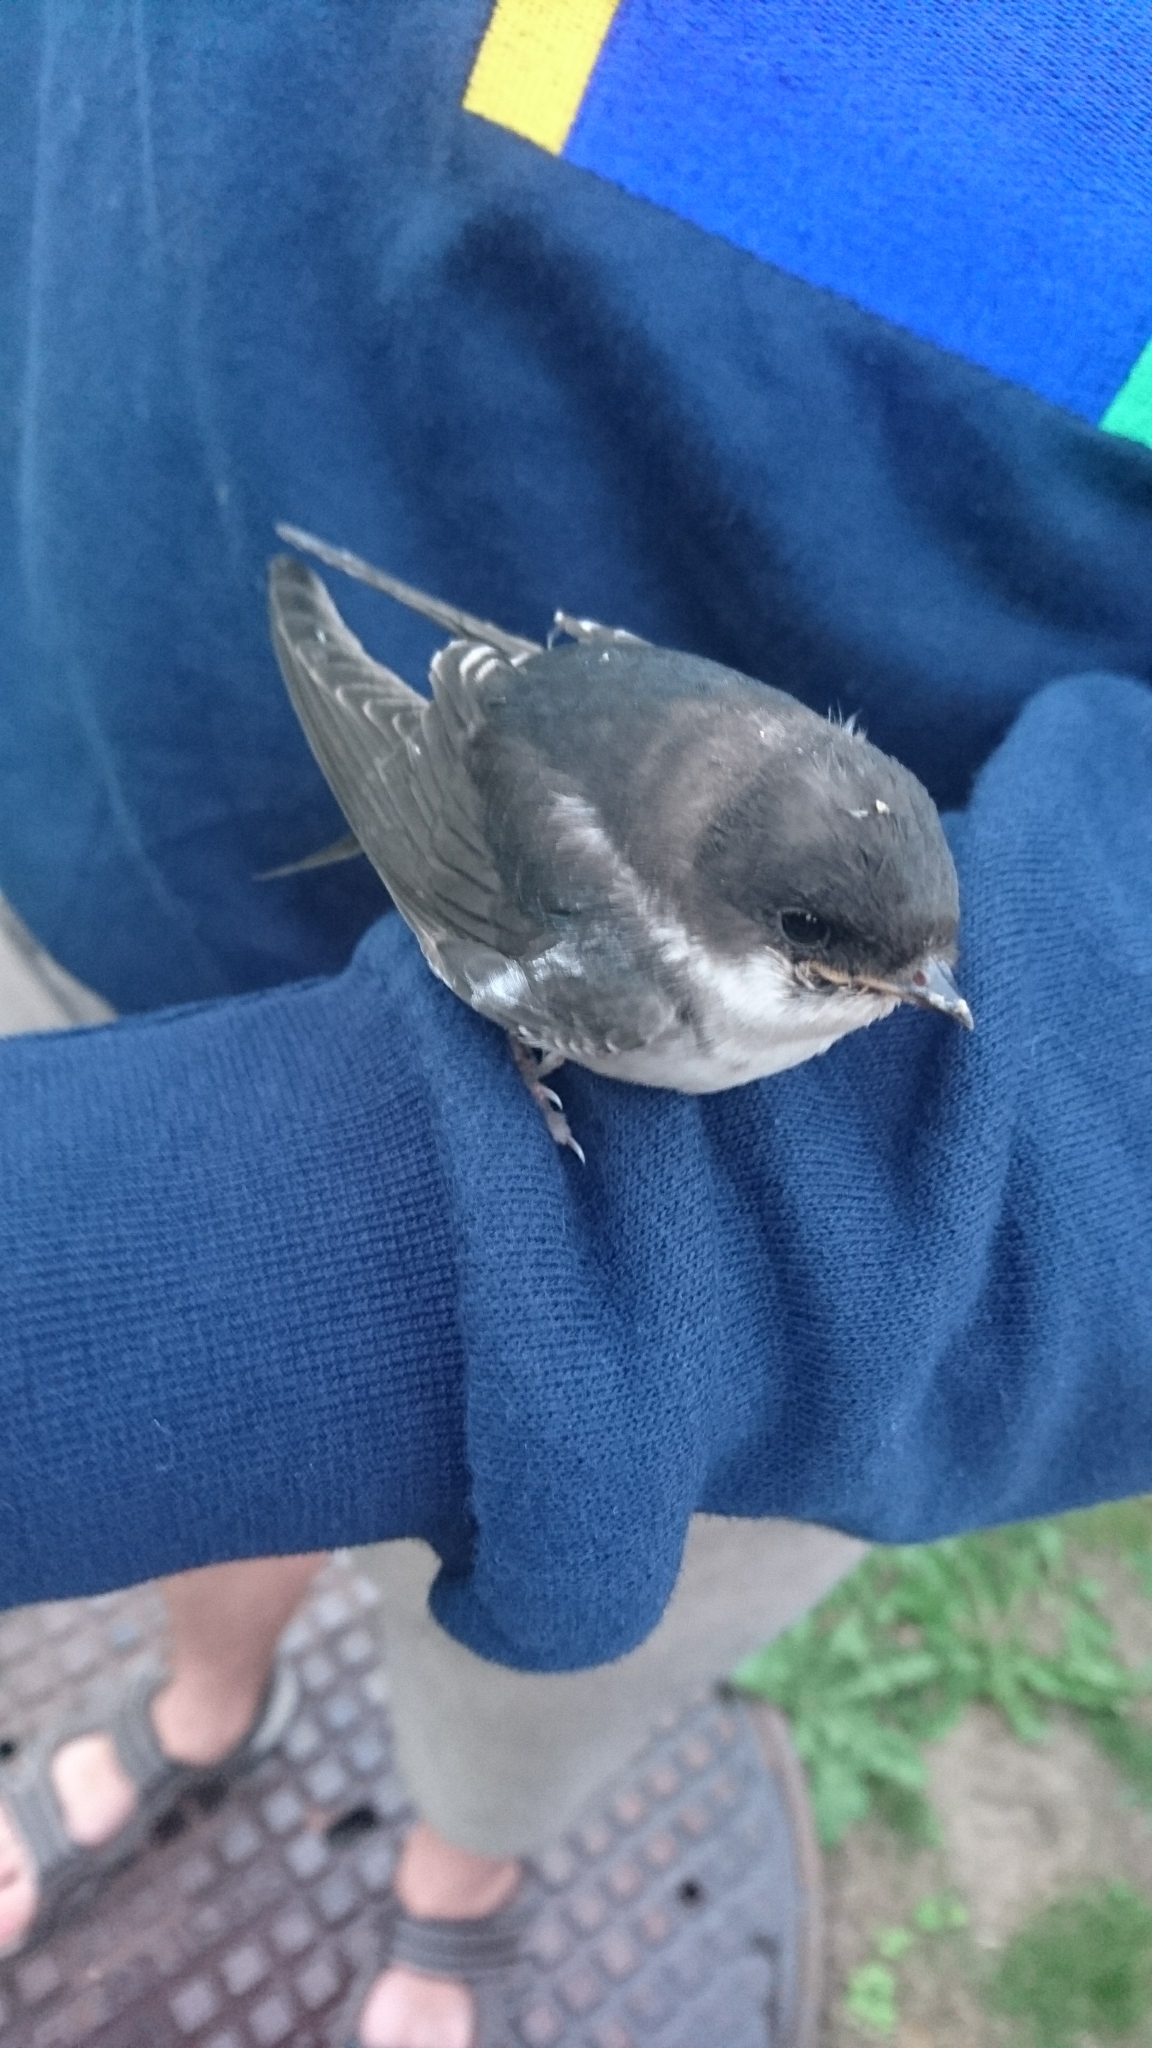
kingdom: Animalia
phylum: Chordata
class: Aves
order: Passeriformes
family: Hirundinidae
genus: Delichon
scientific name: Delichon urbicum
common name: Common house martin
